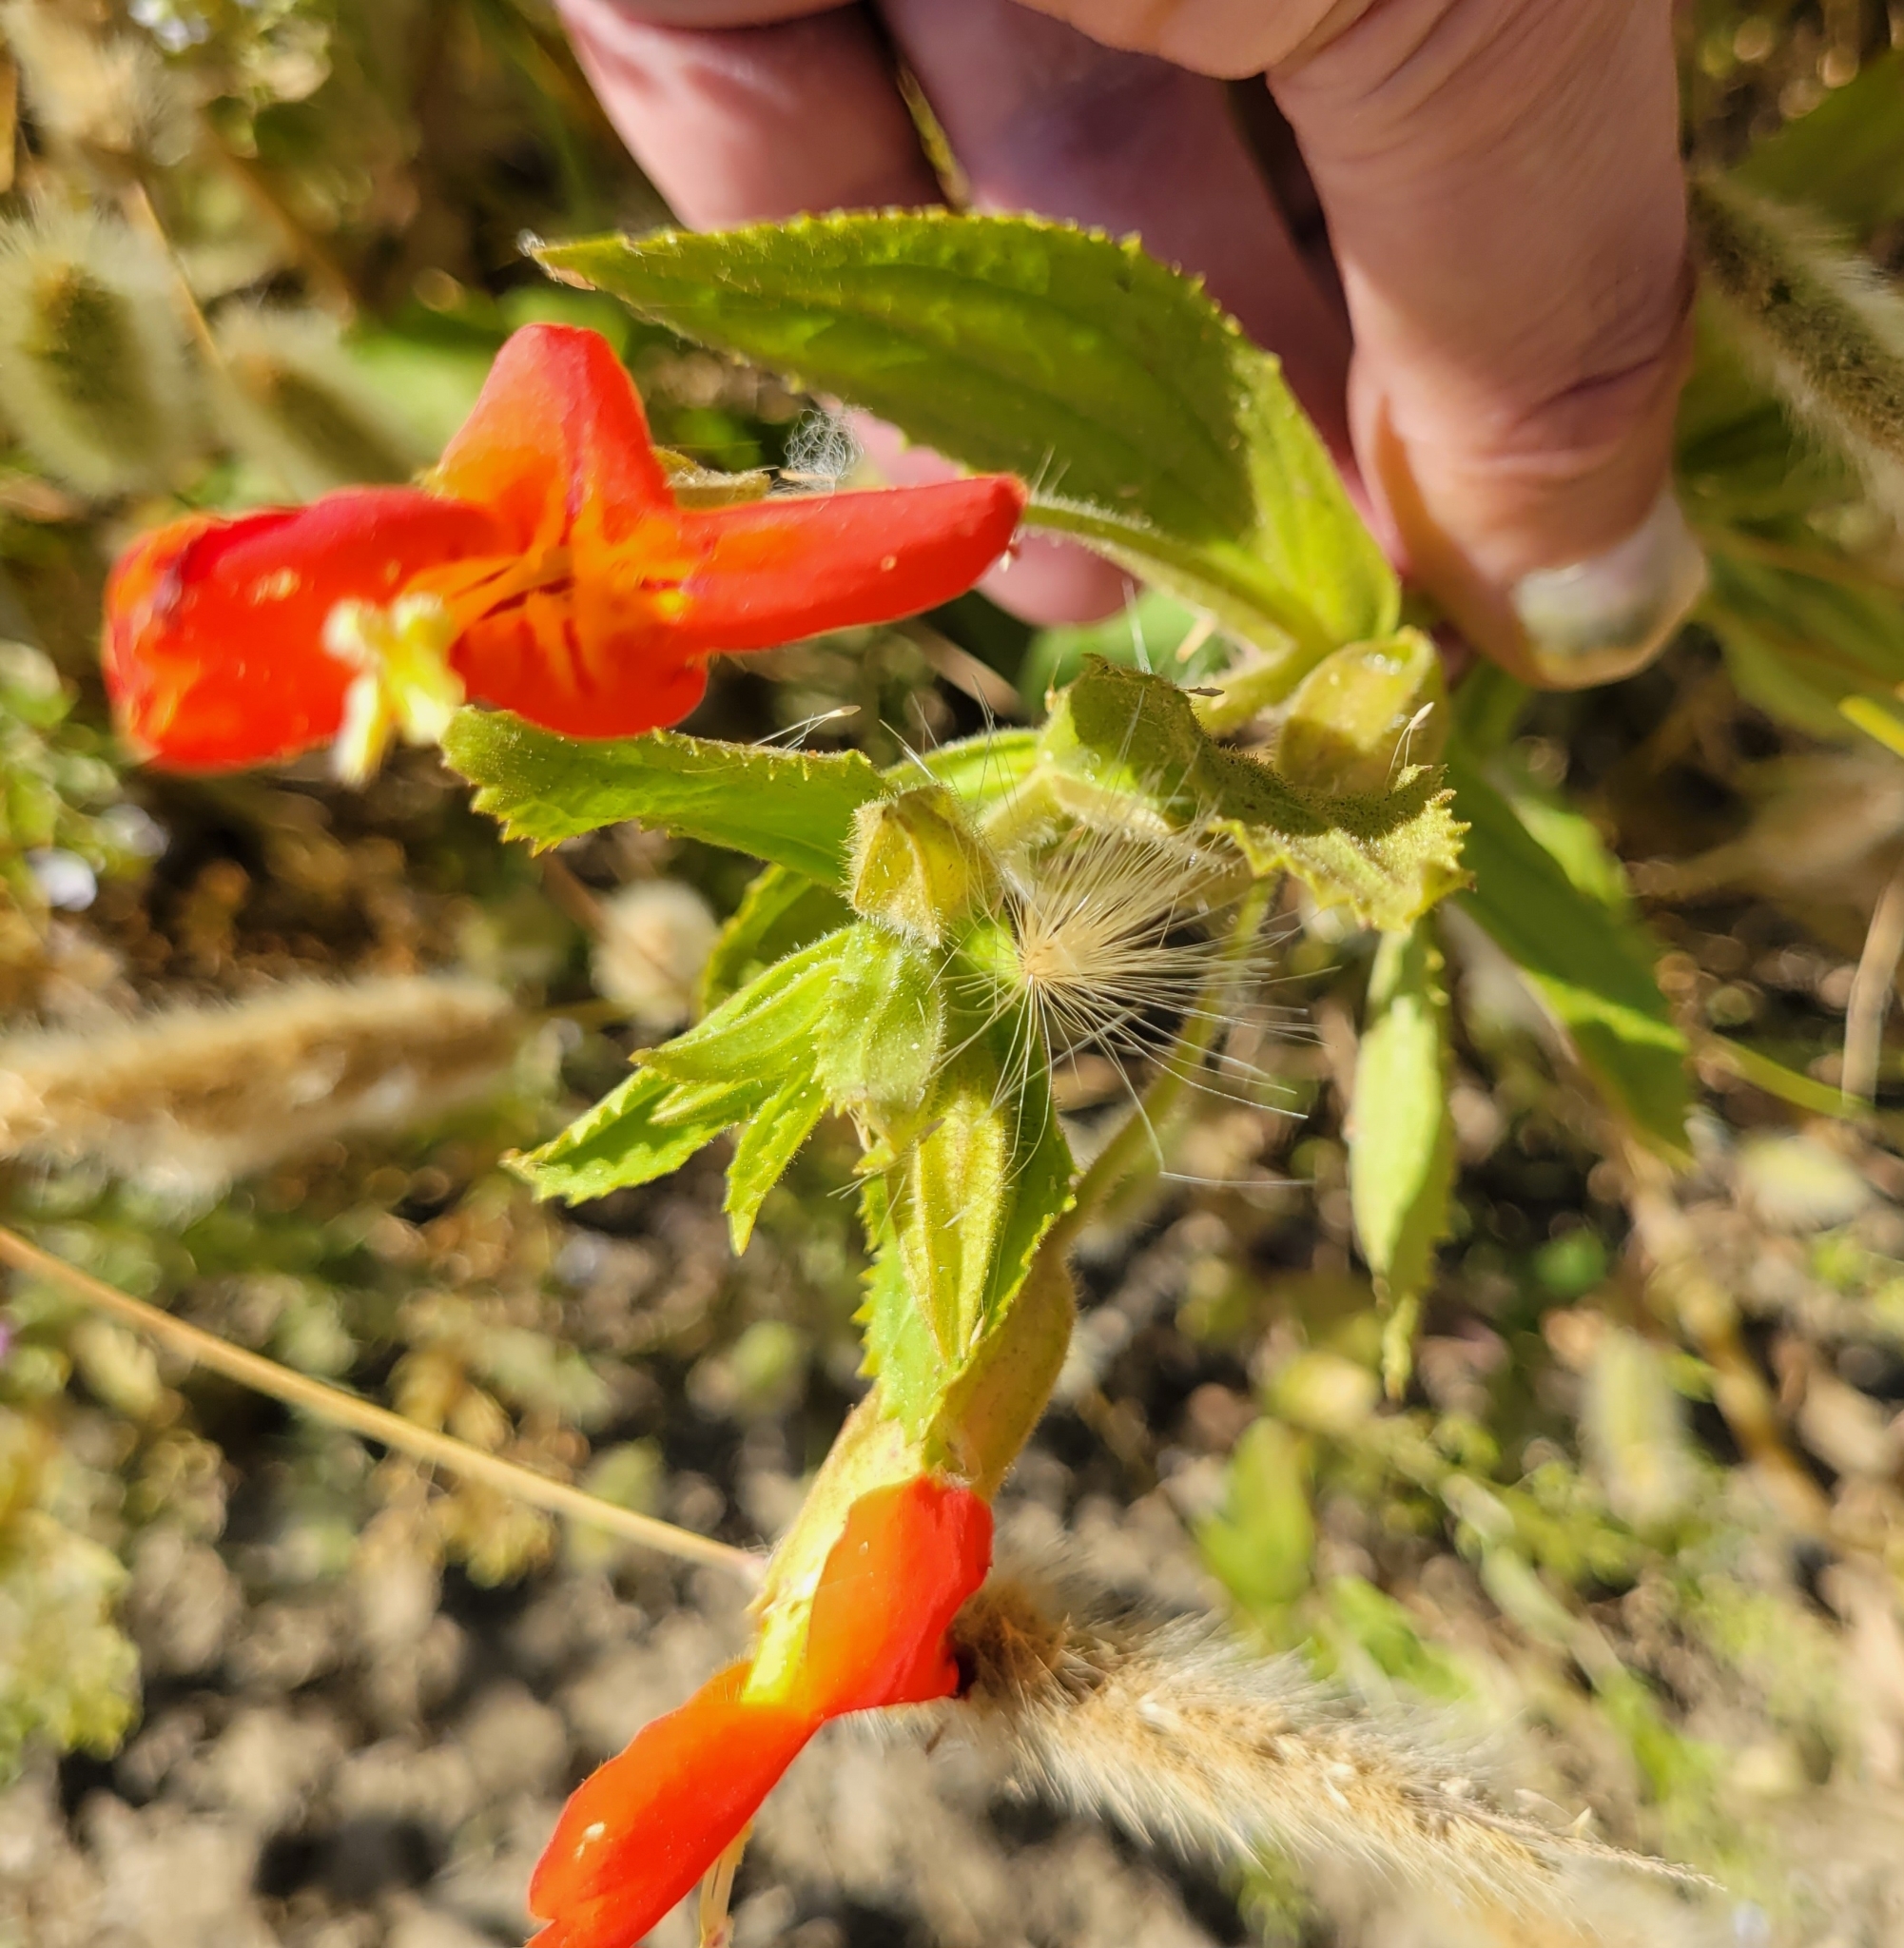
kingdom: Plantae
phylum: Tracheophyta
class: Magnoliopsida
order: Lamiales
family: Phrymaceae
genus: Erythranthe
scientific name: Erythranthe cardinalis
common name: Scarlet monkey-flower
